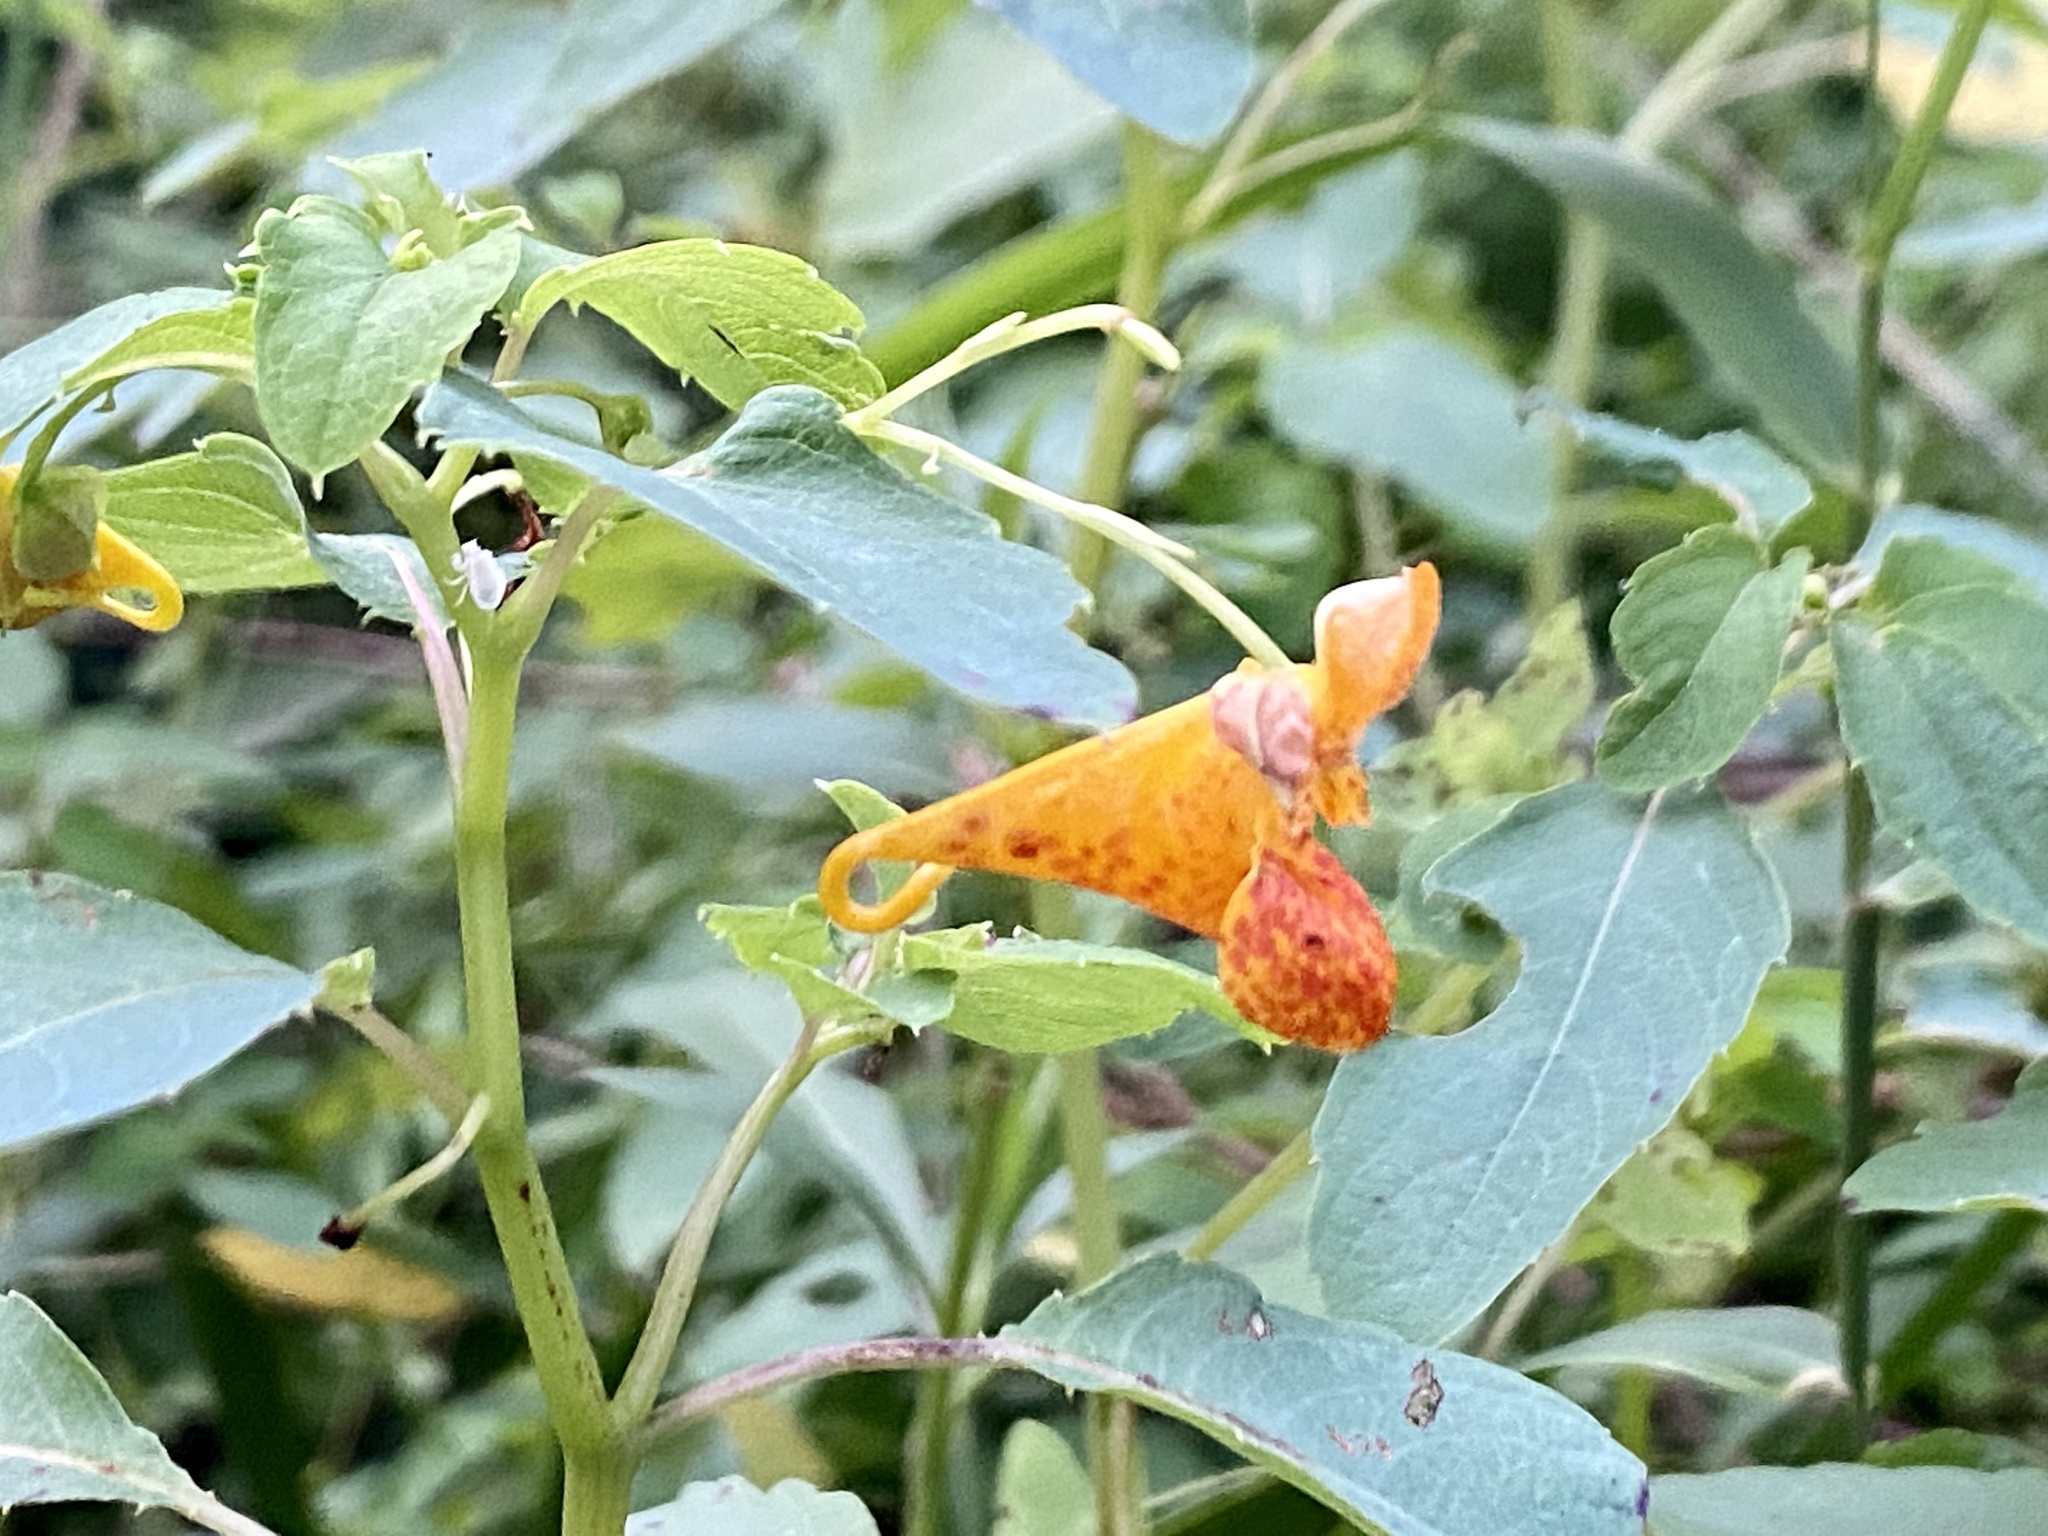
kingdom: Plantae
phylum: Tracheophyta
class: Magnoliopsida
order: Ericales
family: Balsaminaceae
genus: Impatiens
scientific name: Impatiens capensis
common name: Orange balsam
